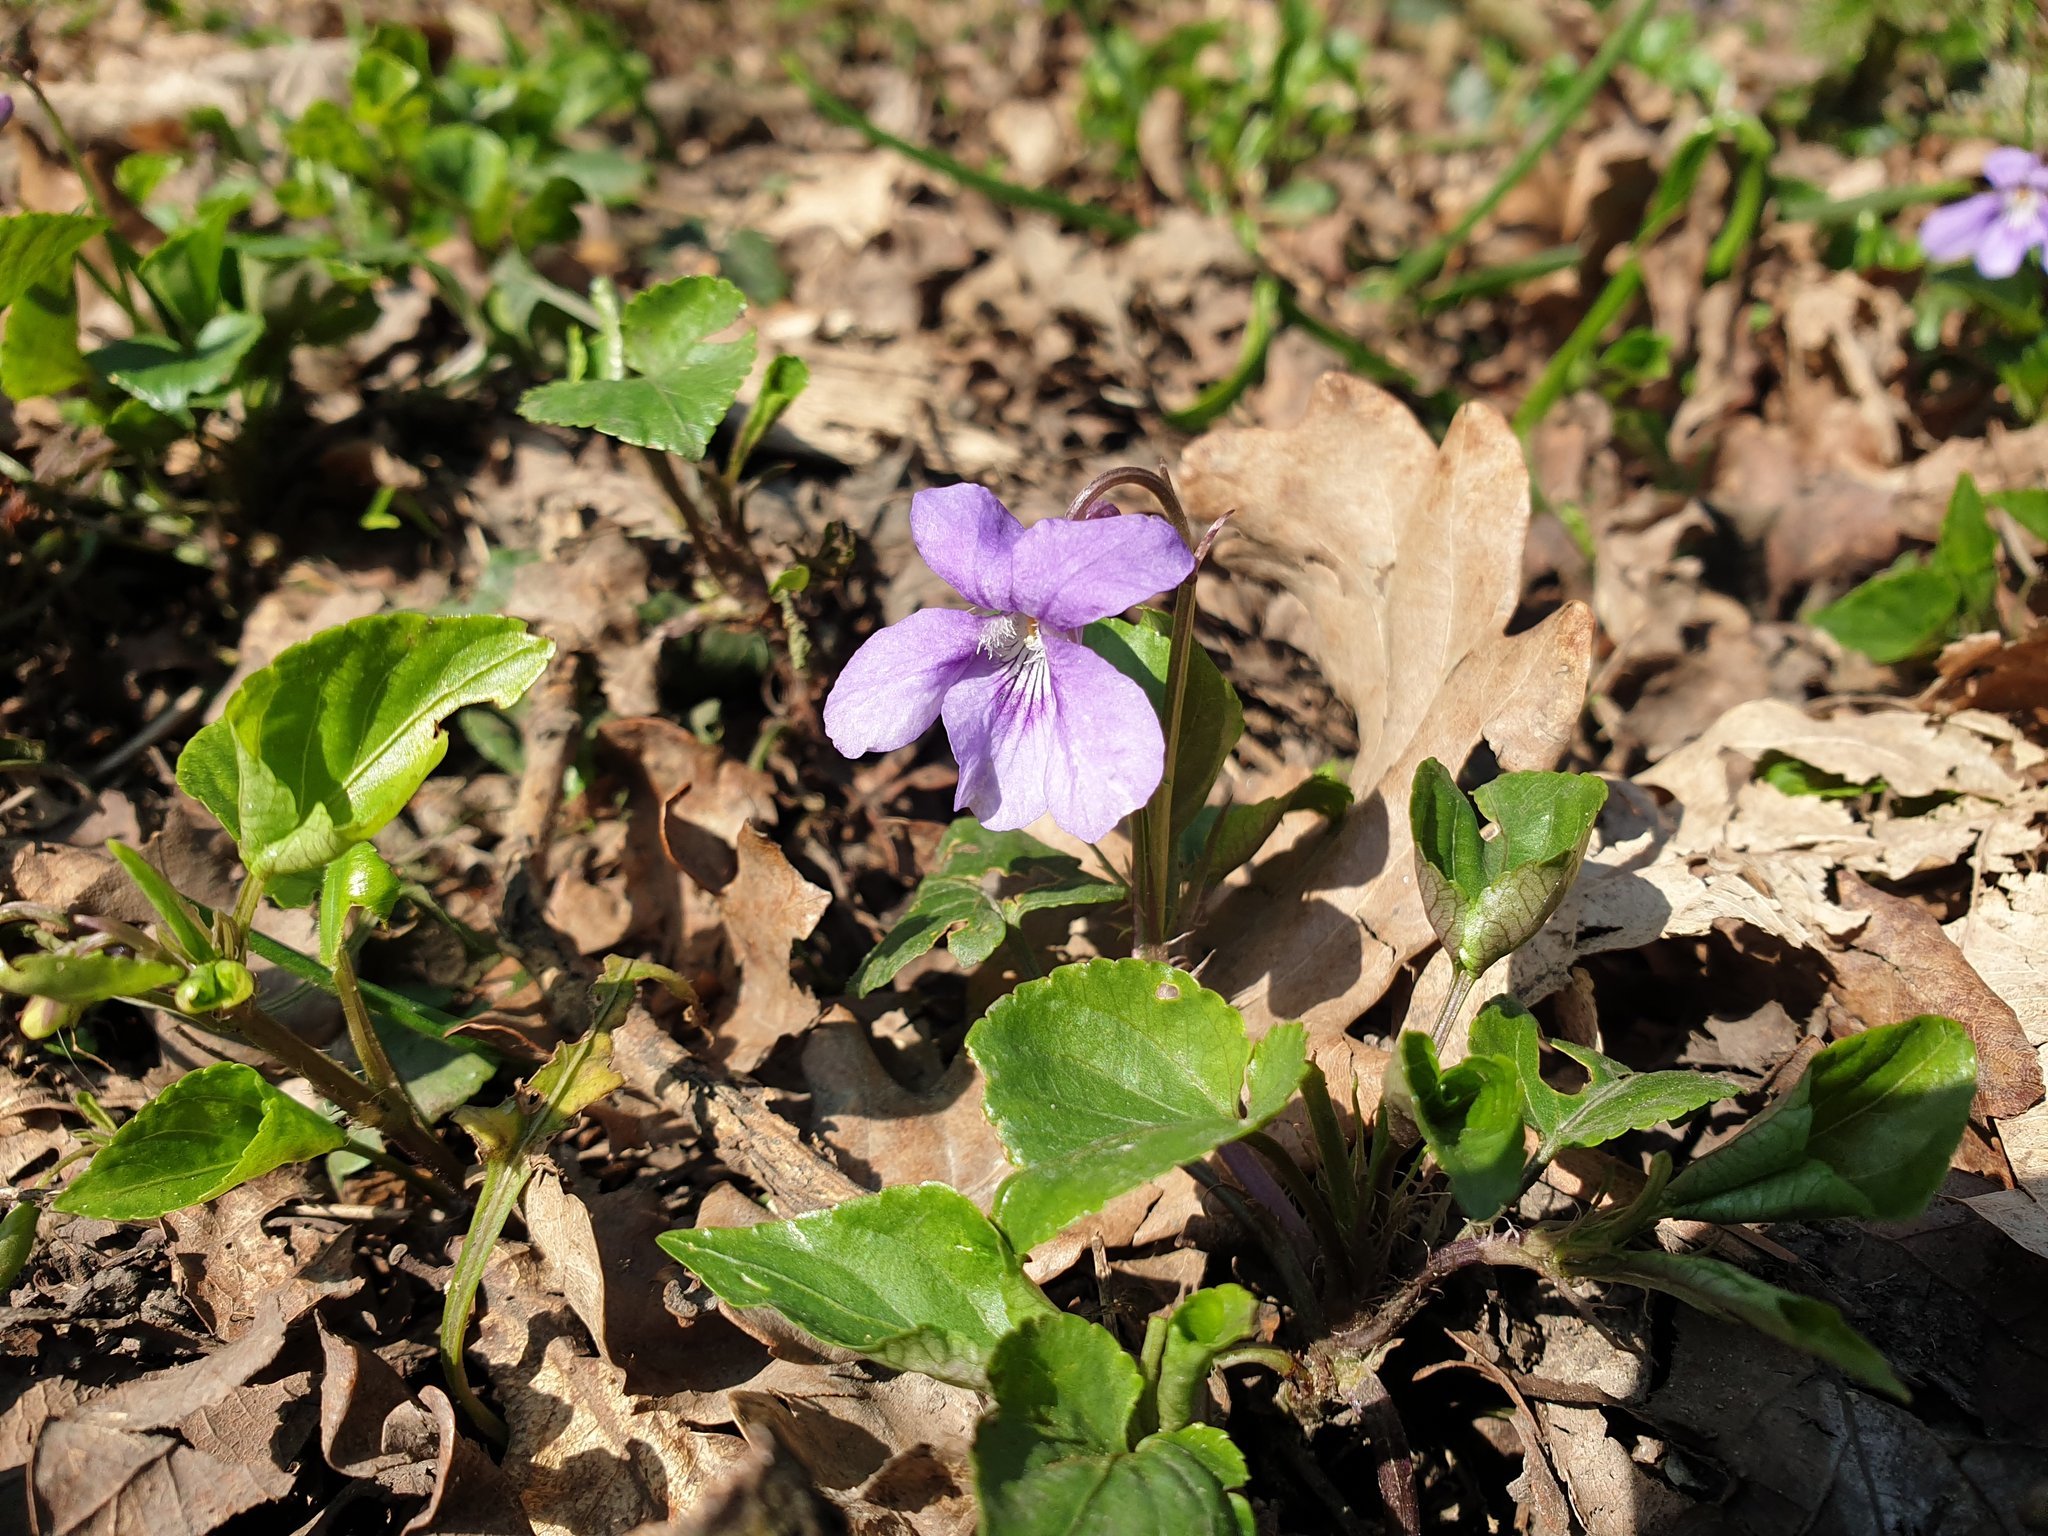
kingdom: Plantae
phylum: Tracheophyta
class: Magnoliopsida
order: Malpighiales
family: Violaceae
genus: Viola
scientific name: Viola riviniana
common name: Common dog-violet
